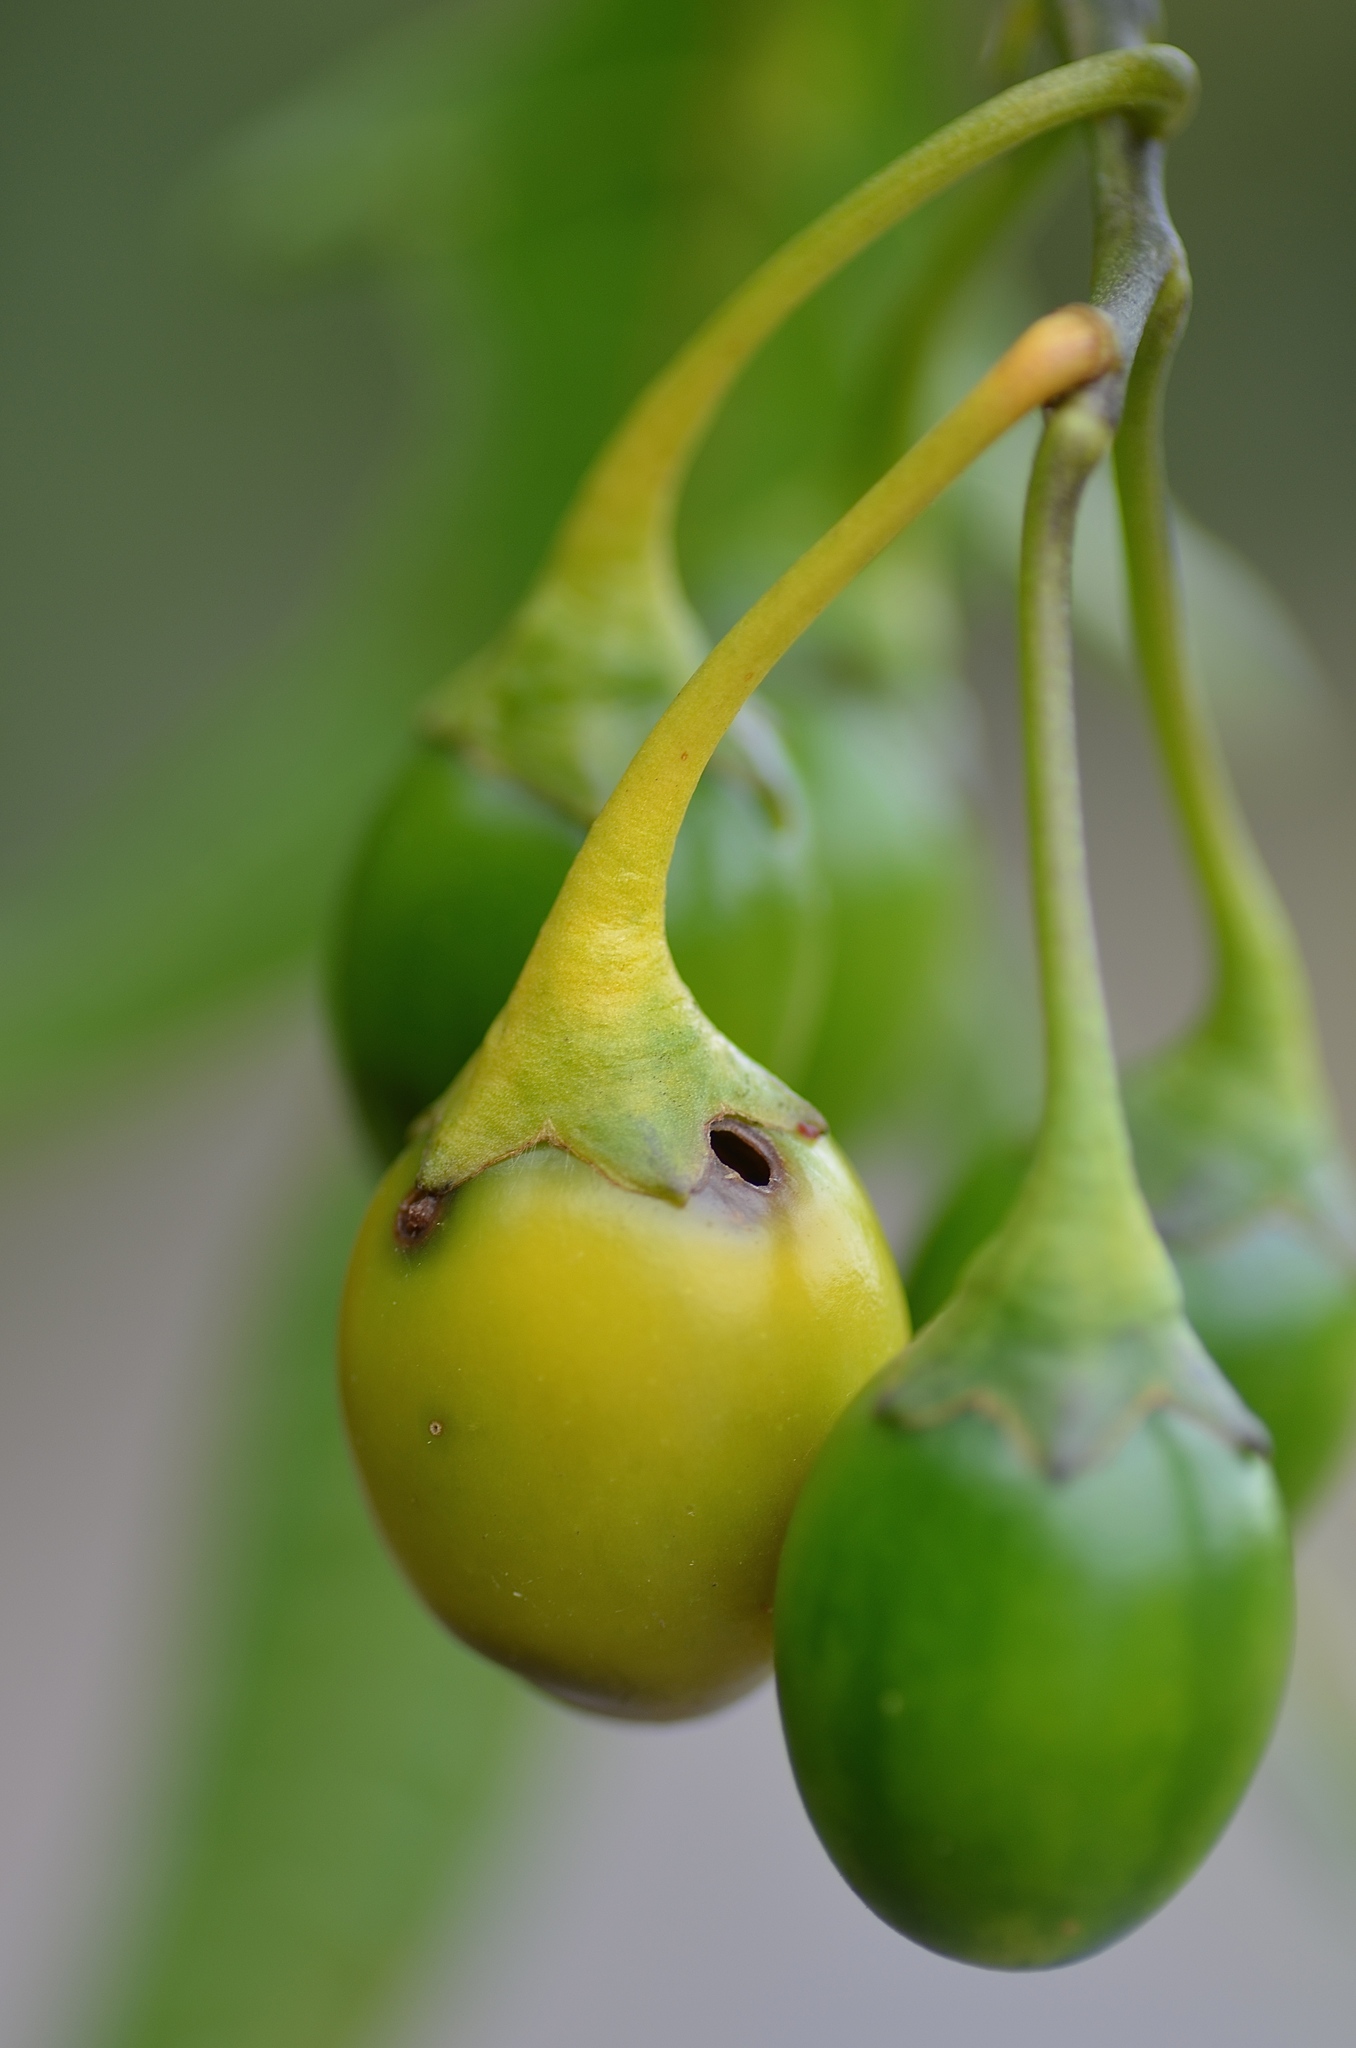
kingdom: Animalia
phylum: Arthropoda
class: Insecta
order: Lepidoptera
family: Crambidae
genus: Sceliodes
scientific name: Sceliodes cordalis
